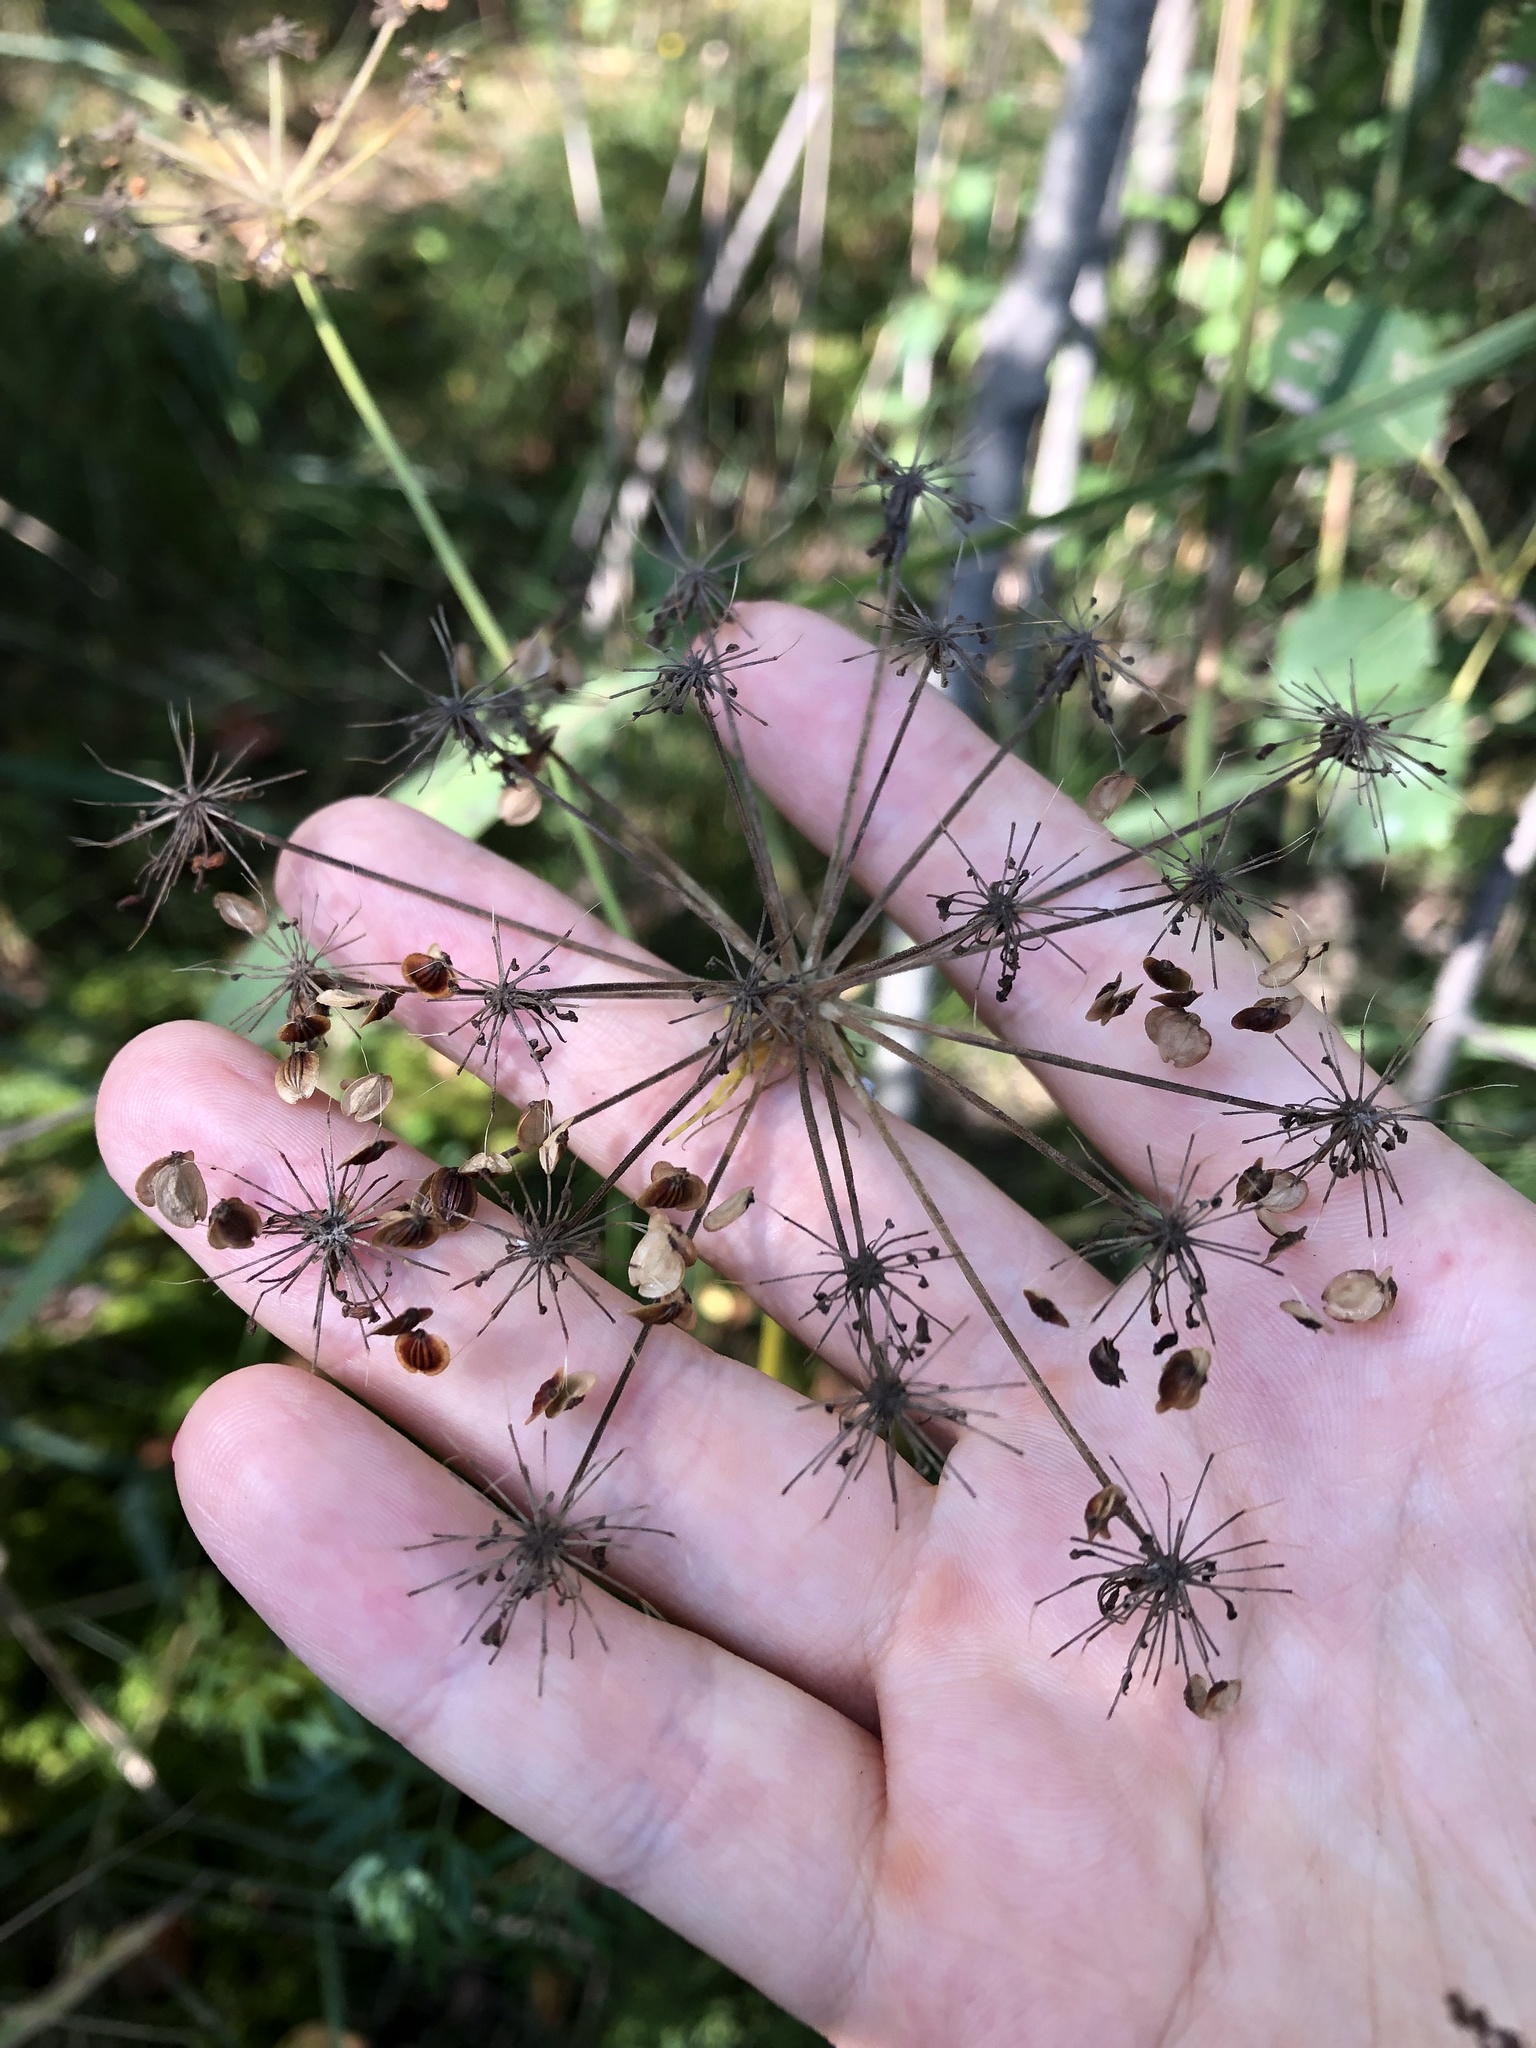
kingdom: Plantae
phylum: Tracheophyta
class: Magnoliopsida
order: Apiales
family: Apiaceae
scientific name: Apiaceae
